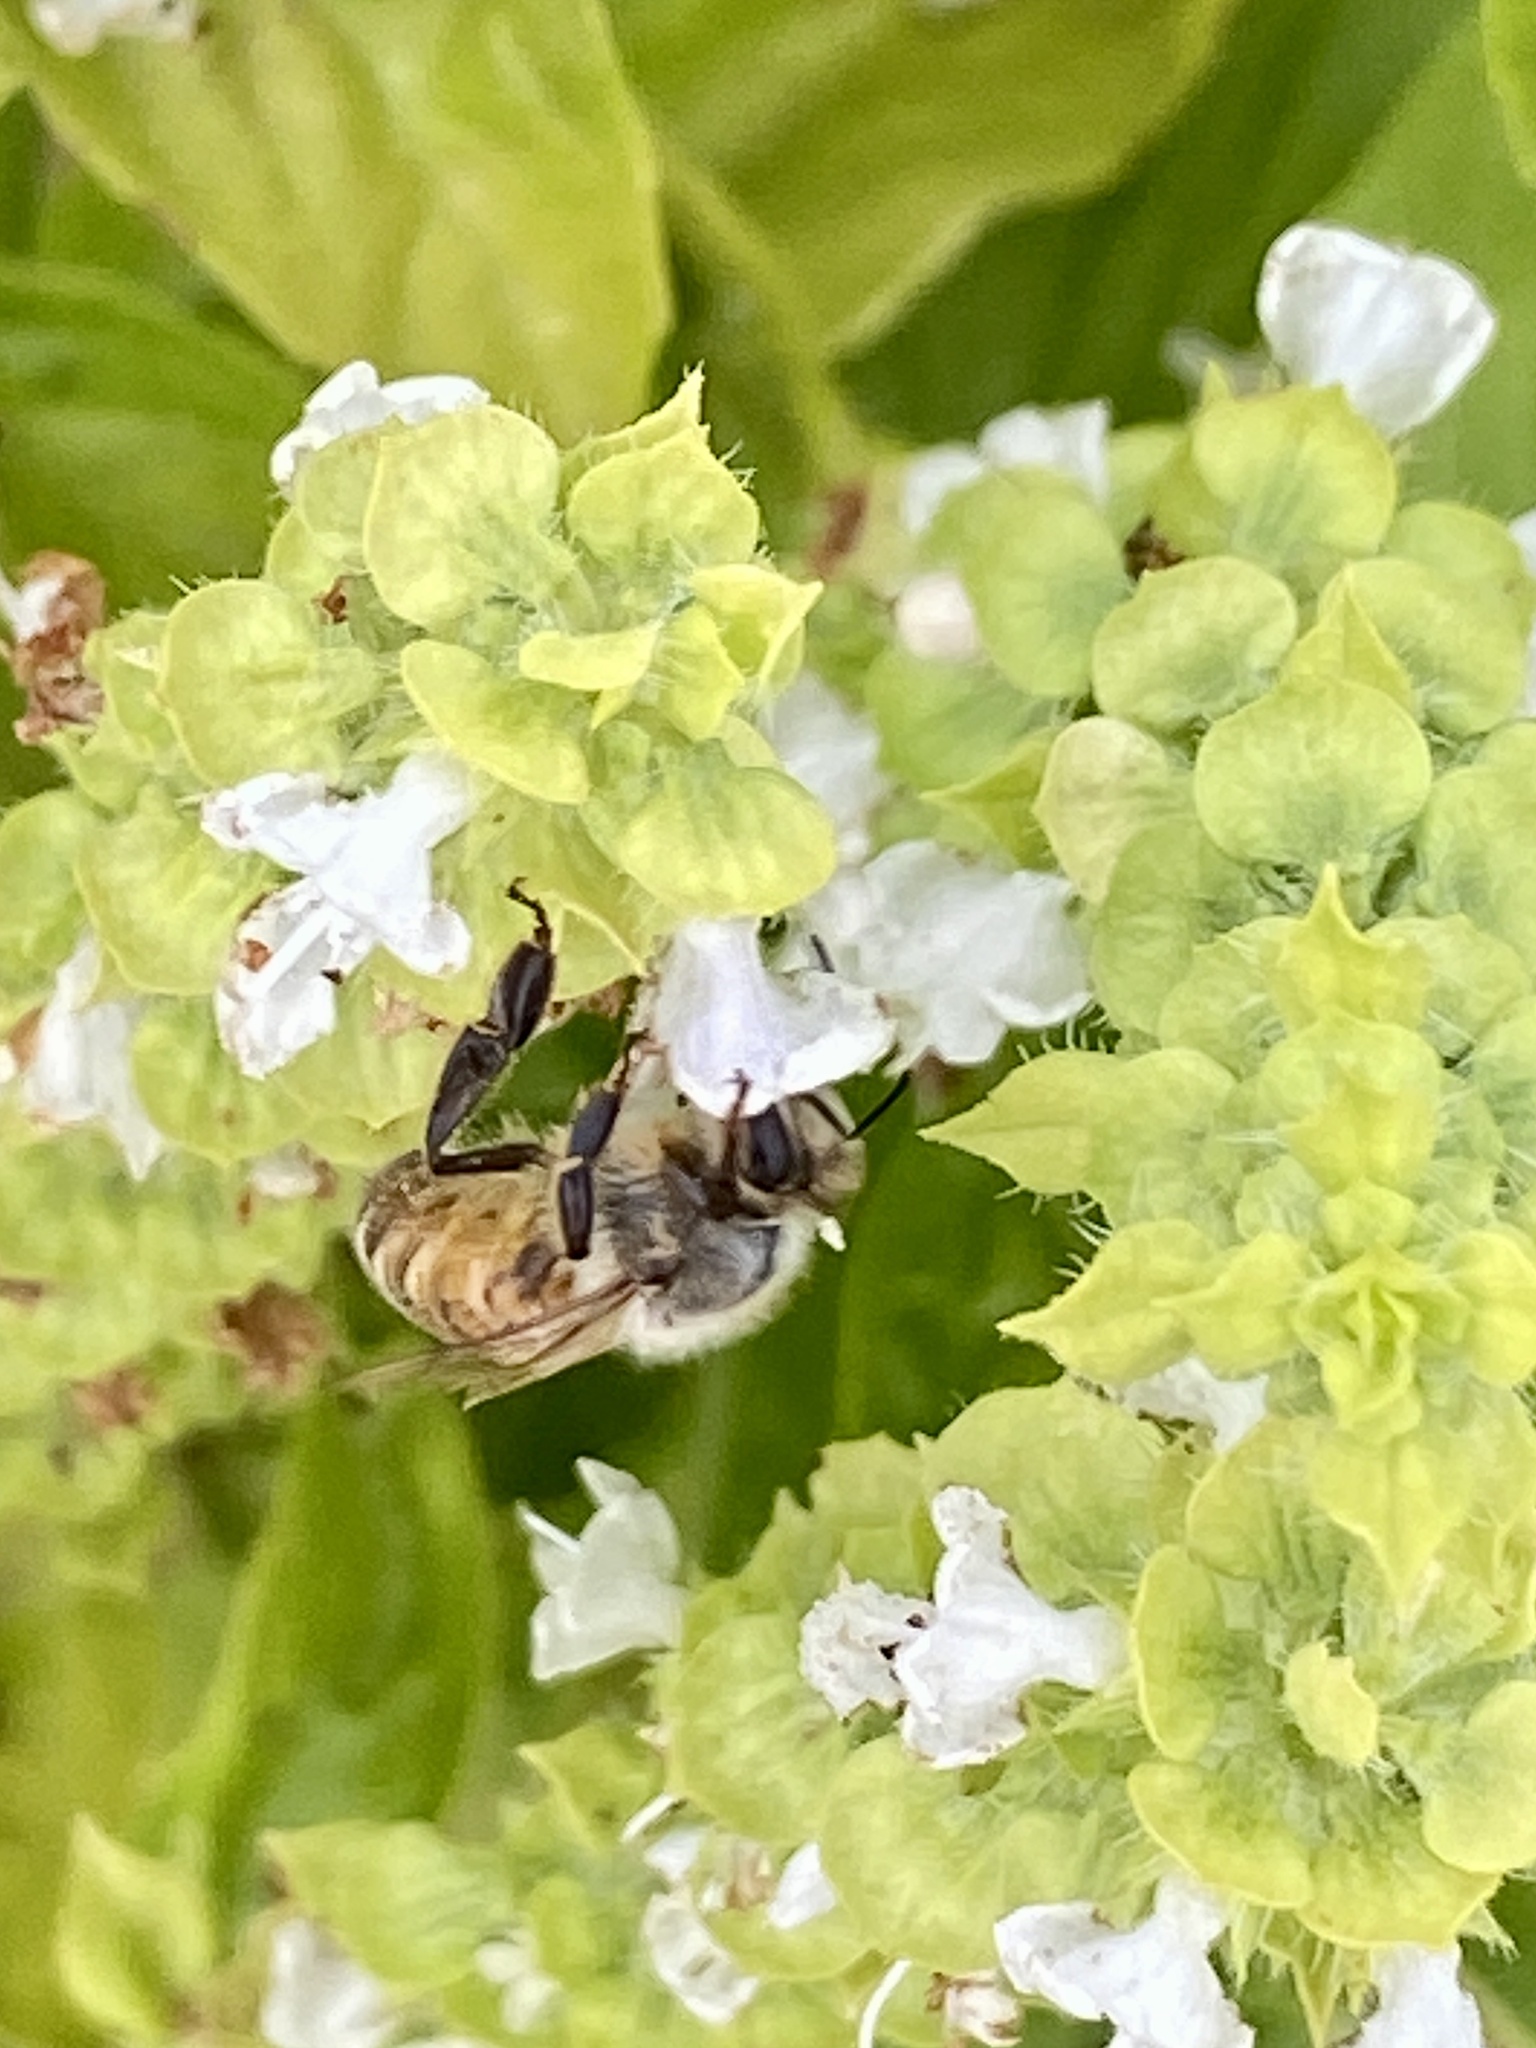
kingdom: Animalia
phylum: Arthropoda
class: Insecta
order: Hymenoptera
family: Apidae
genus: Apis
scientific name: Apis mellifera
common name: Honey bee
